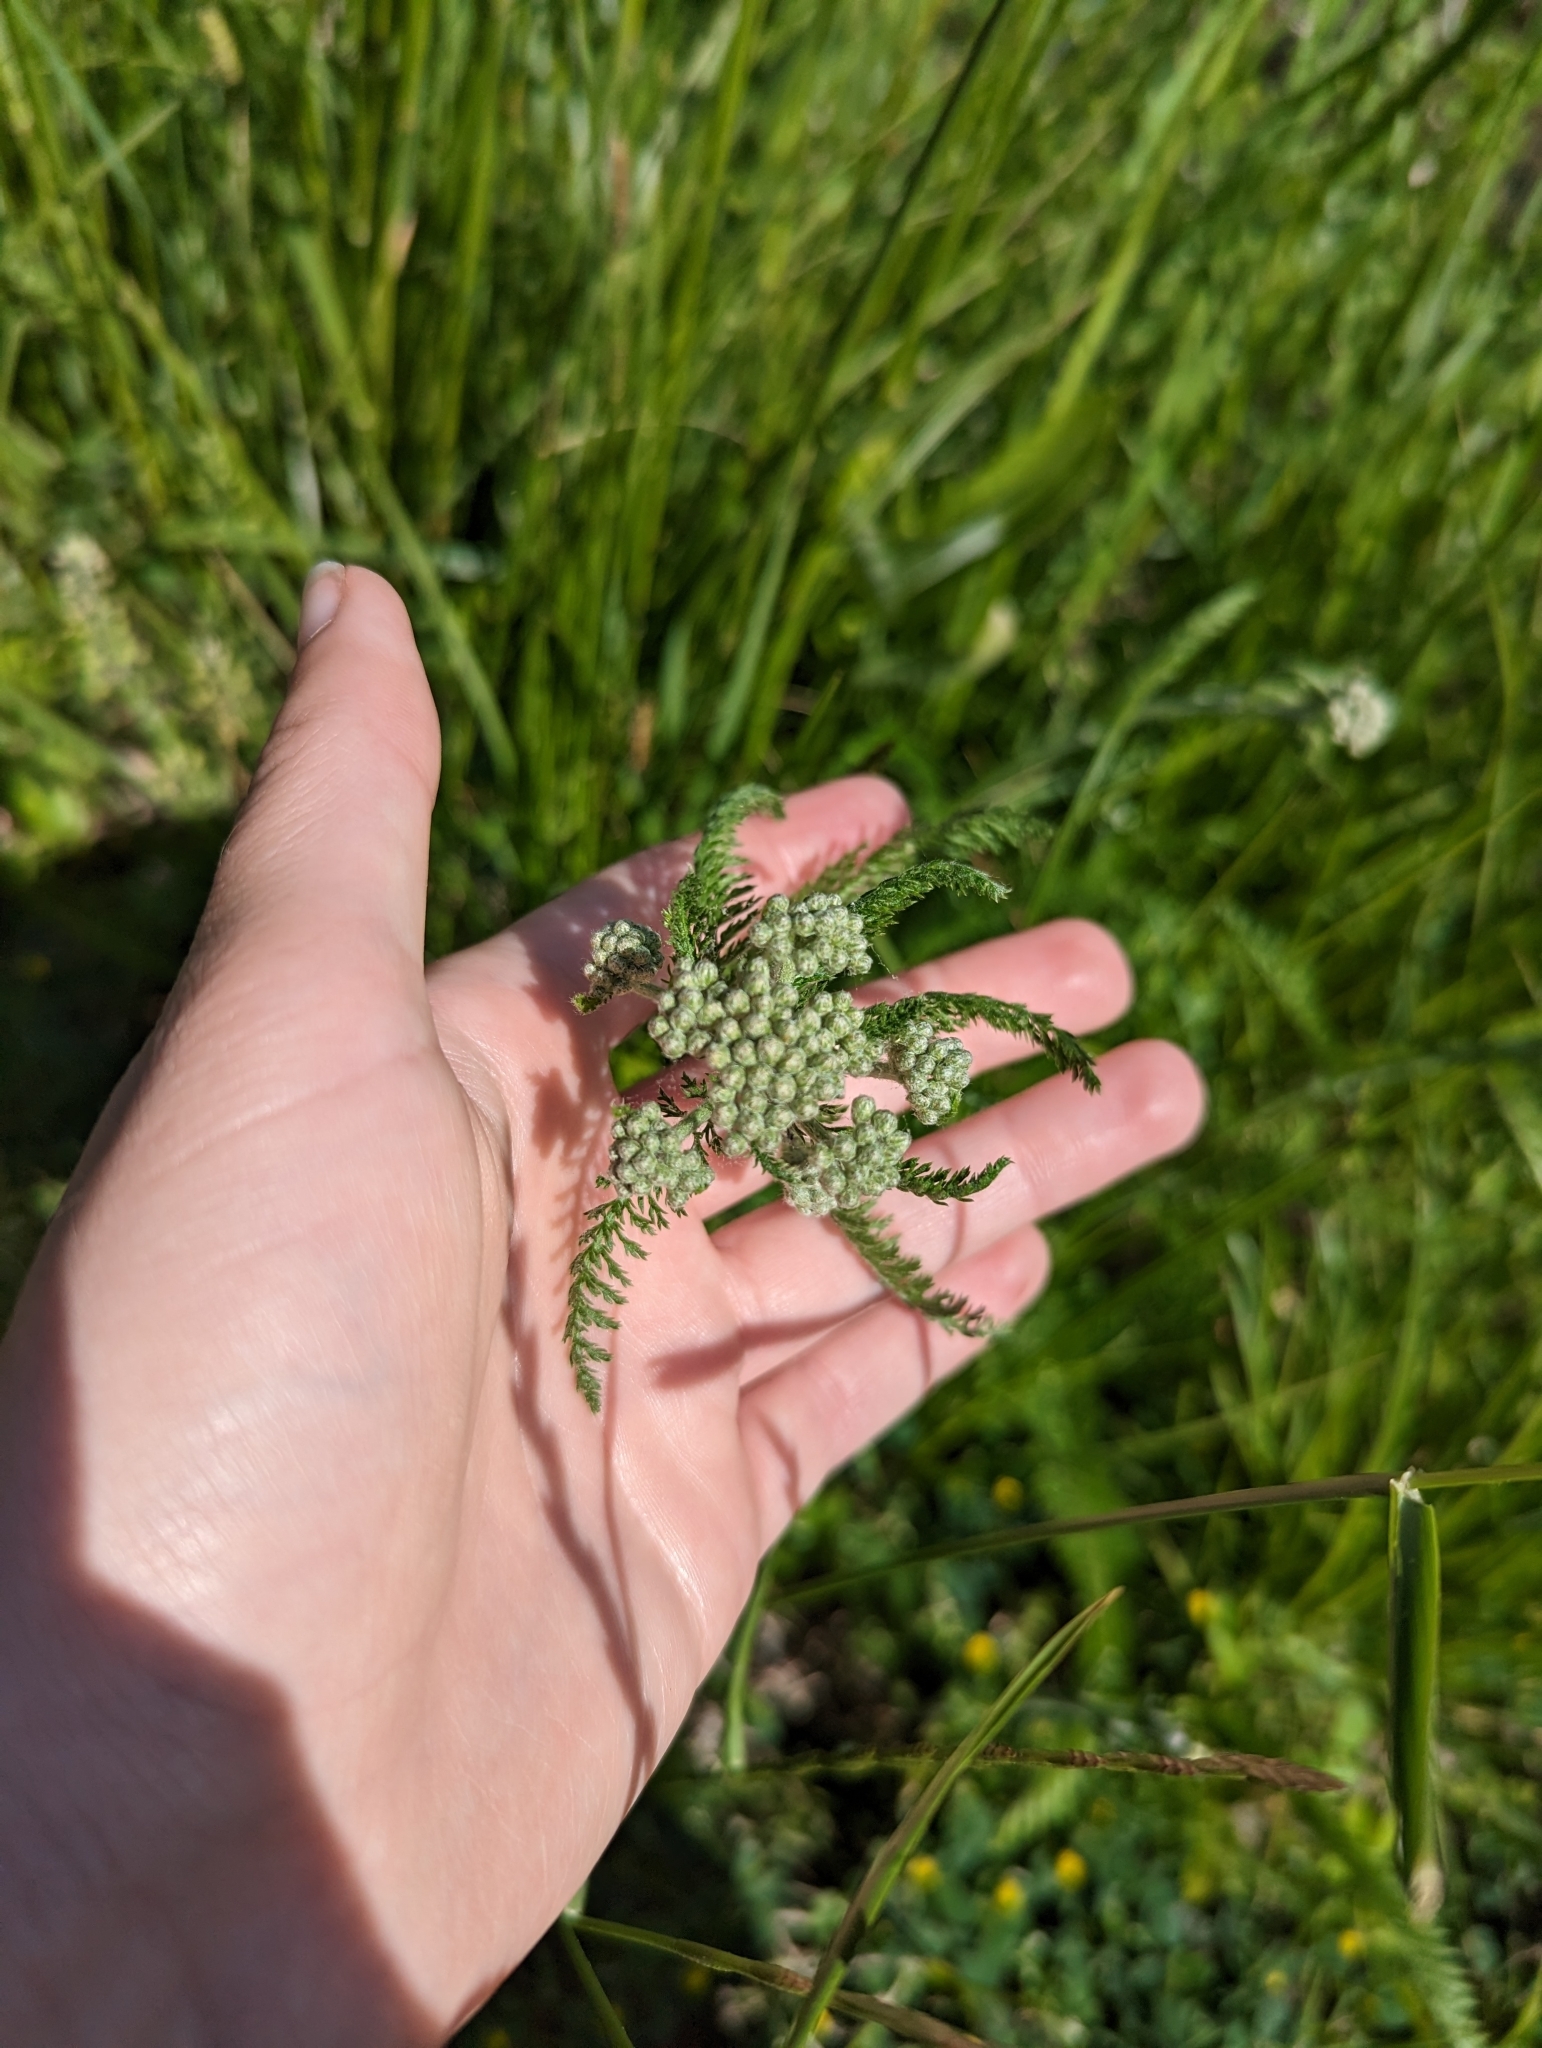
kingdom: Plantae
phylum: Tracheophyta
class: Magnoliopsida
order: Asterales
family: Asteraceae
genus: Achillea
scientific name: Achillea millefolium
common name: Yarrow
